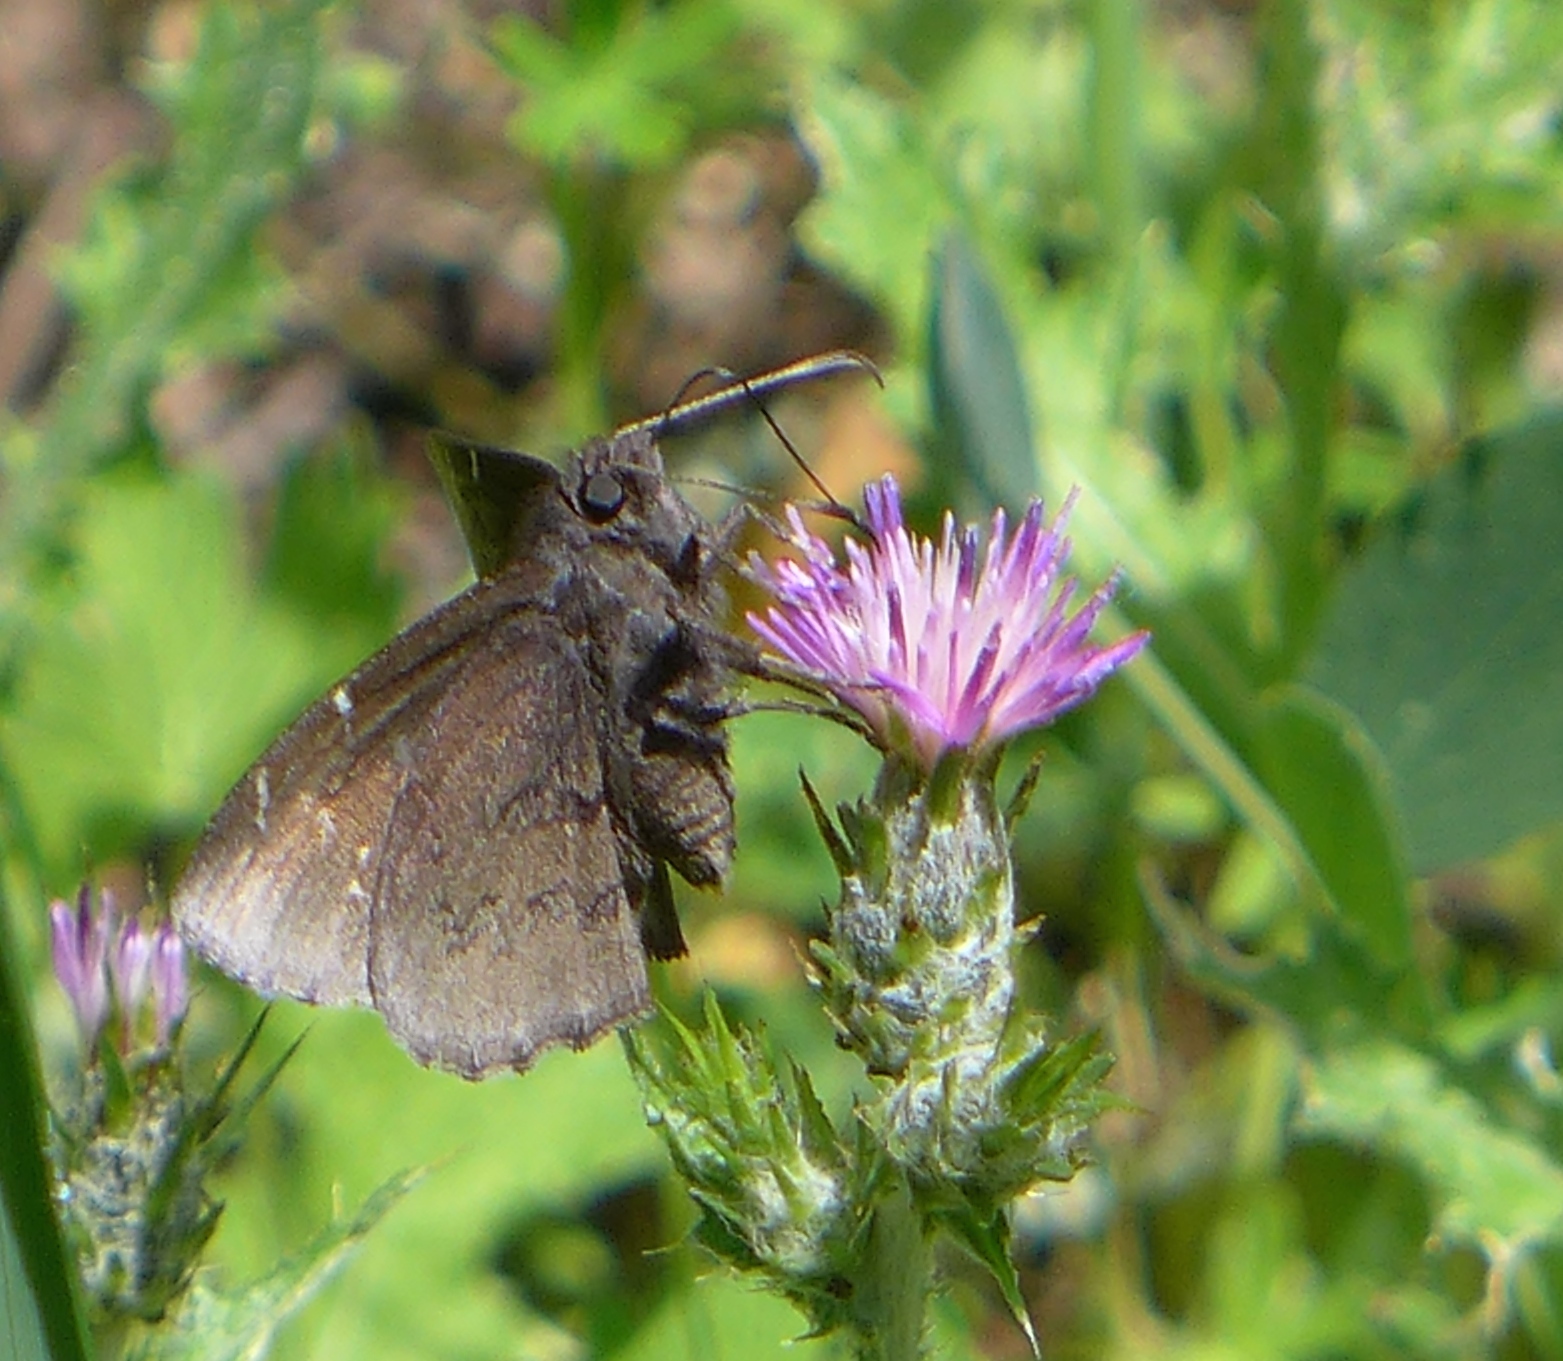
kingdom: Animalia
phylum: Arthropoda
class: Insecta
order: Lepidoptera
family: Hesperiidae
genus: Thorybes
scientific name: Thorybes pylades
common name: Northern cloudywing
